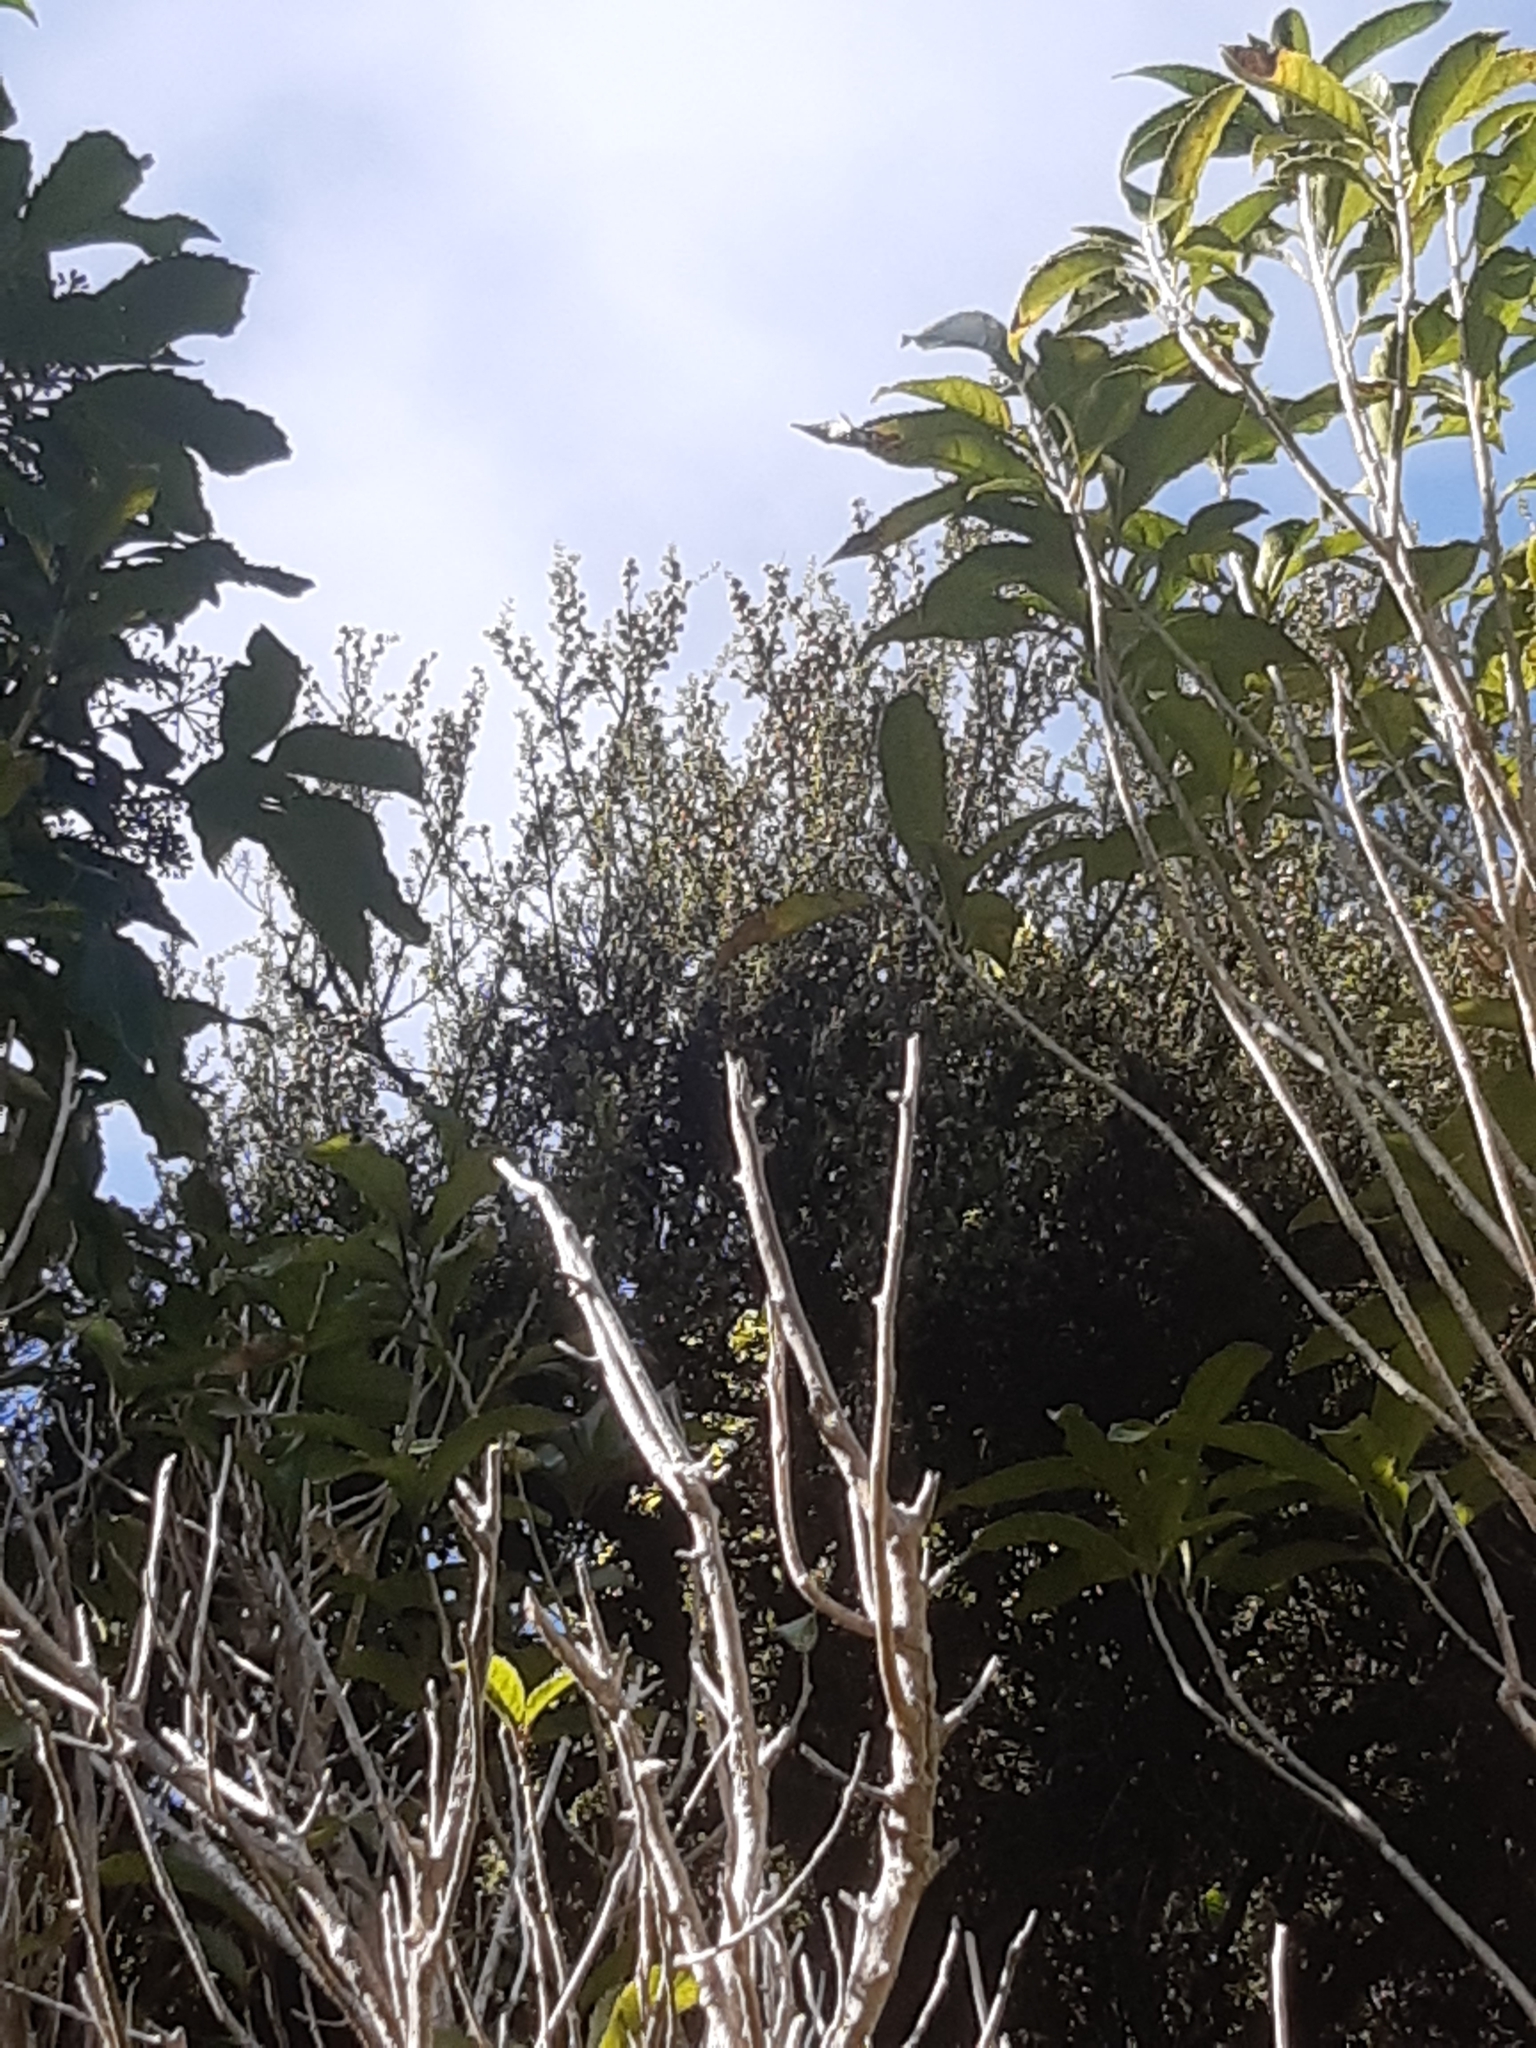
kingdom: Plantae
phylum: Tracheophyta
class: Magnoliopsida
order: Myrtales
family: Myrtaceae
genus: Leptospermum
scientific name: Leptospermum scoparium
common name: Broom tea-tree
